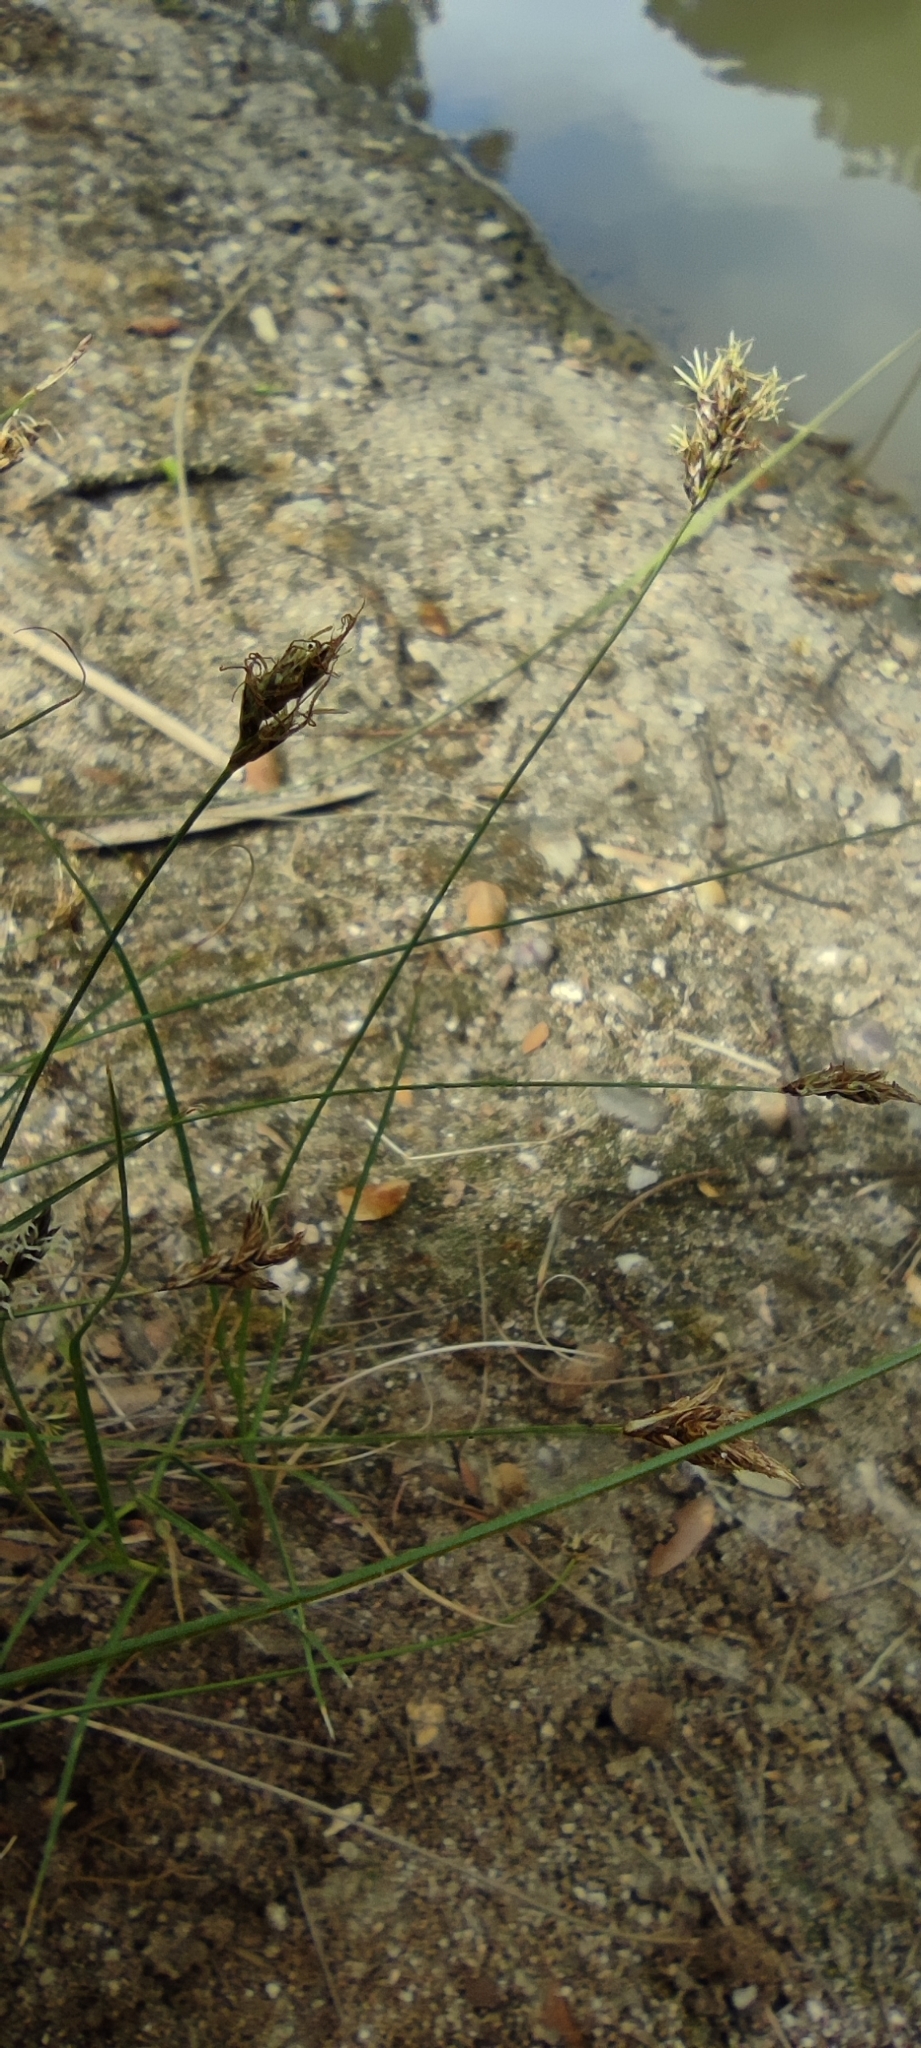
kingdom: Plantae
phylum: Tracheophyta
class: Liliopsida
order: Poales
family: Cyperaceae
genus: Carex
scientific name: Carex divisa
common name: Divided sedge
